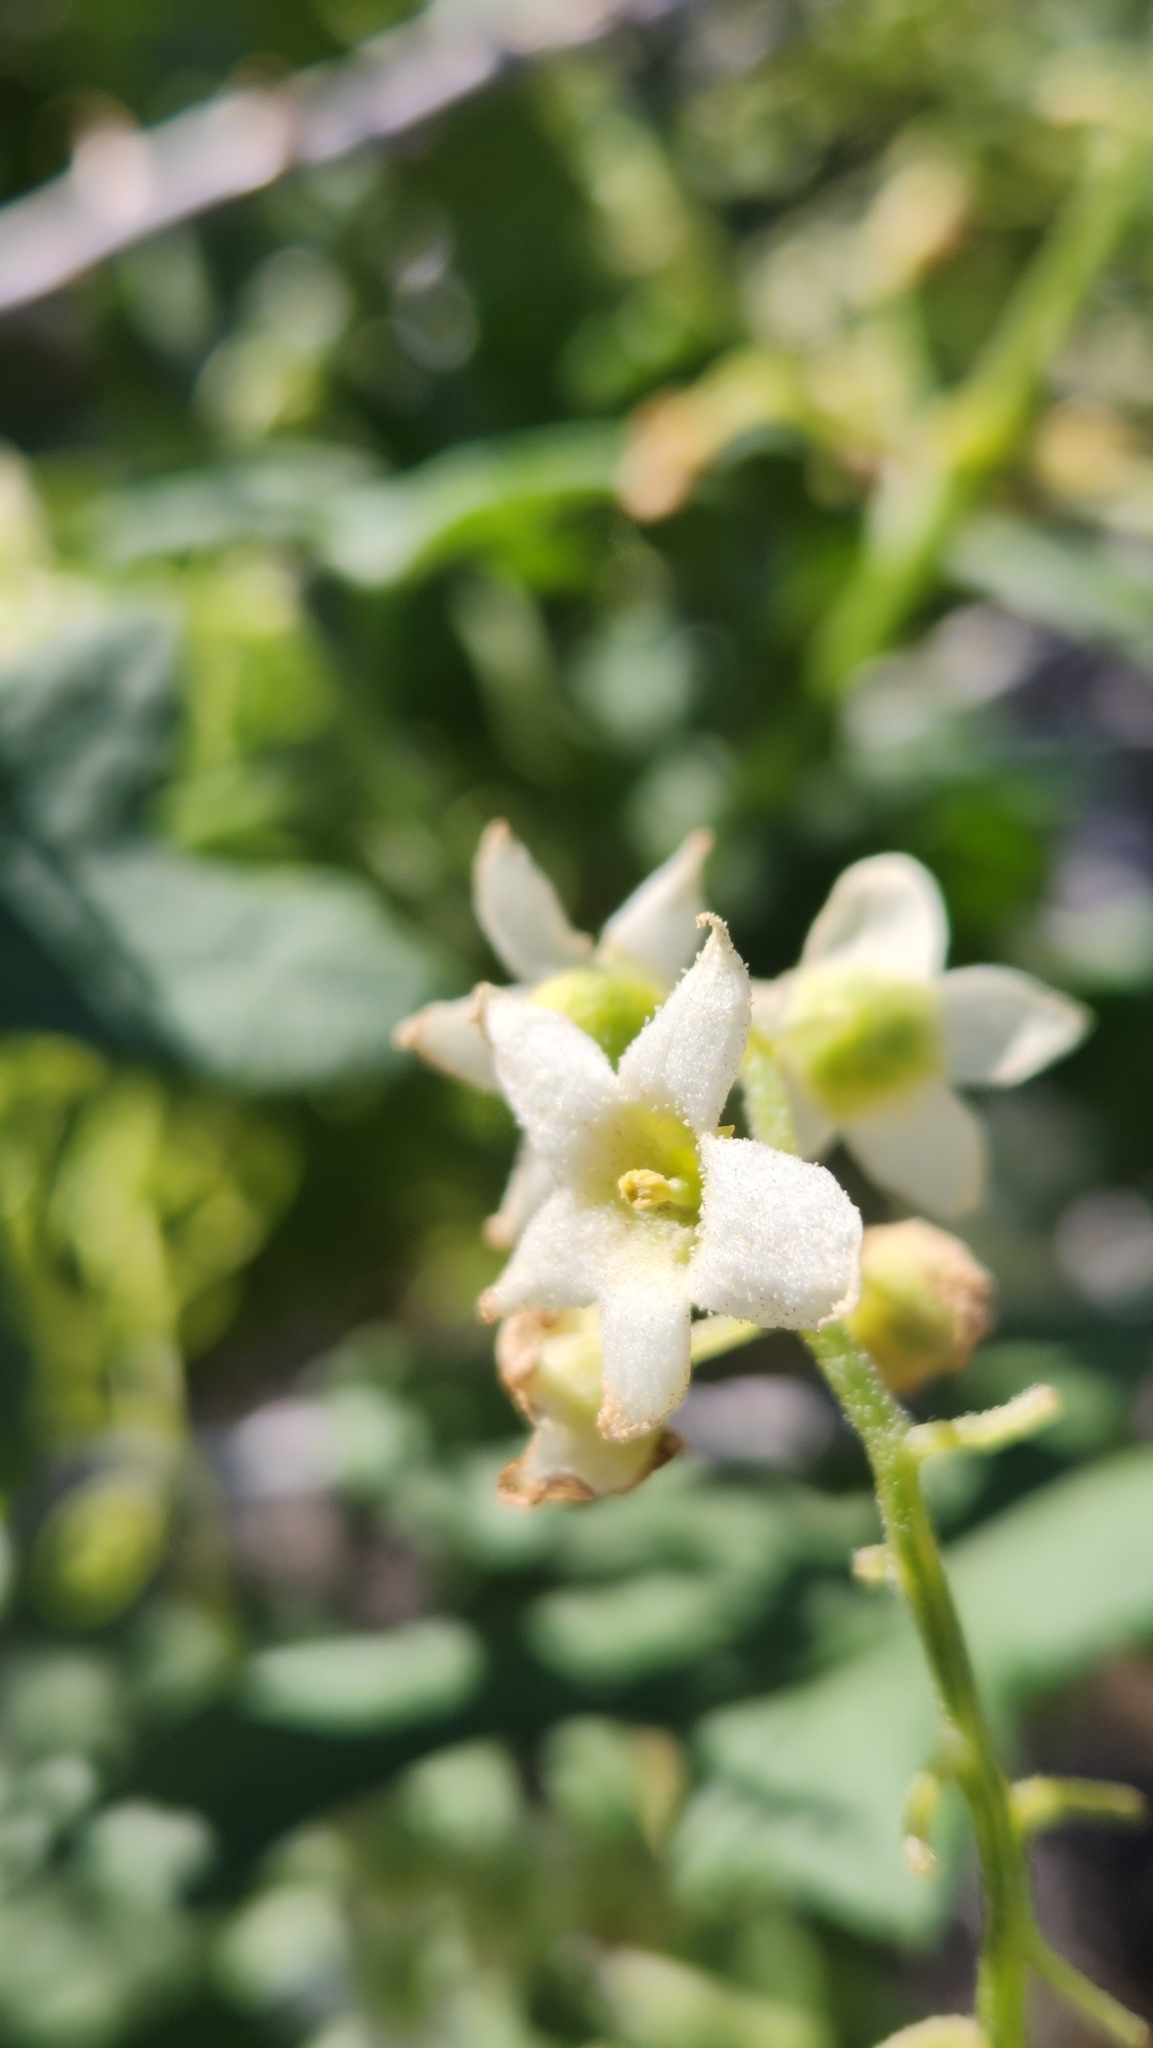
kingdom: Plantae
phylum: Tracheophyta
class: Magnoliopsida
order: Cucurbitales
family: Cucurbitaceae
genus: Marah
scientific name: Marah macrocarpa
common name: Cucamonga manroot
